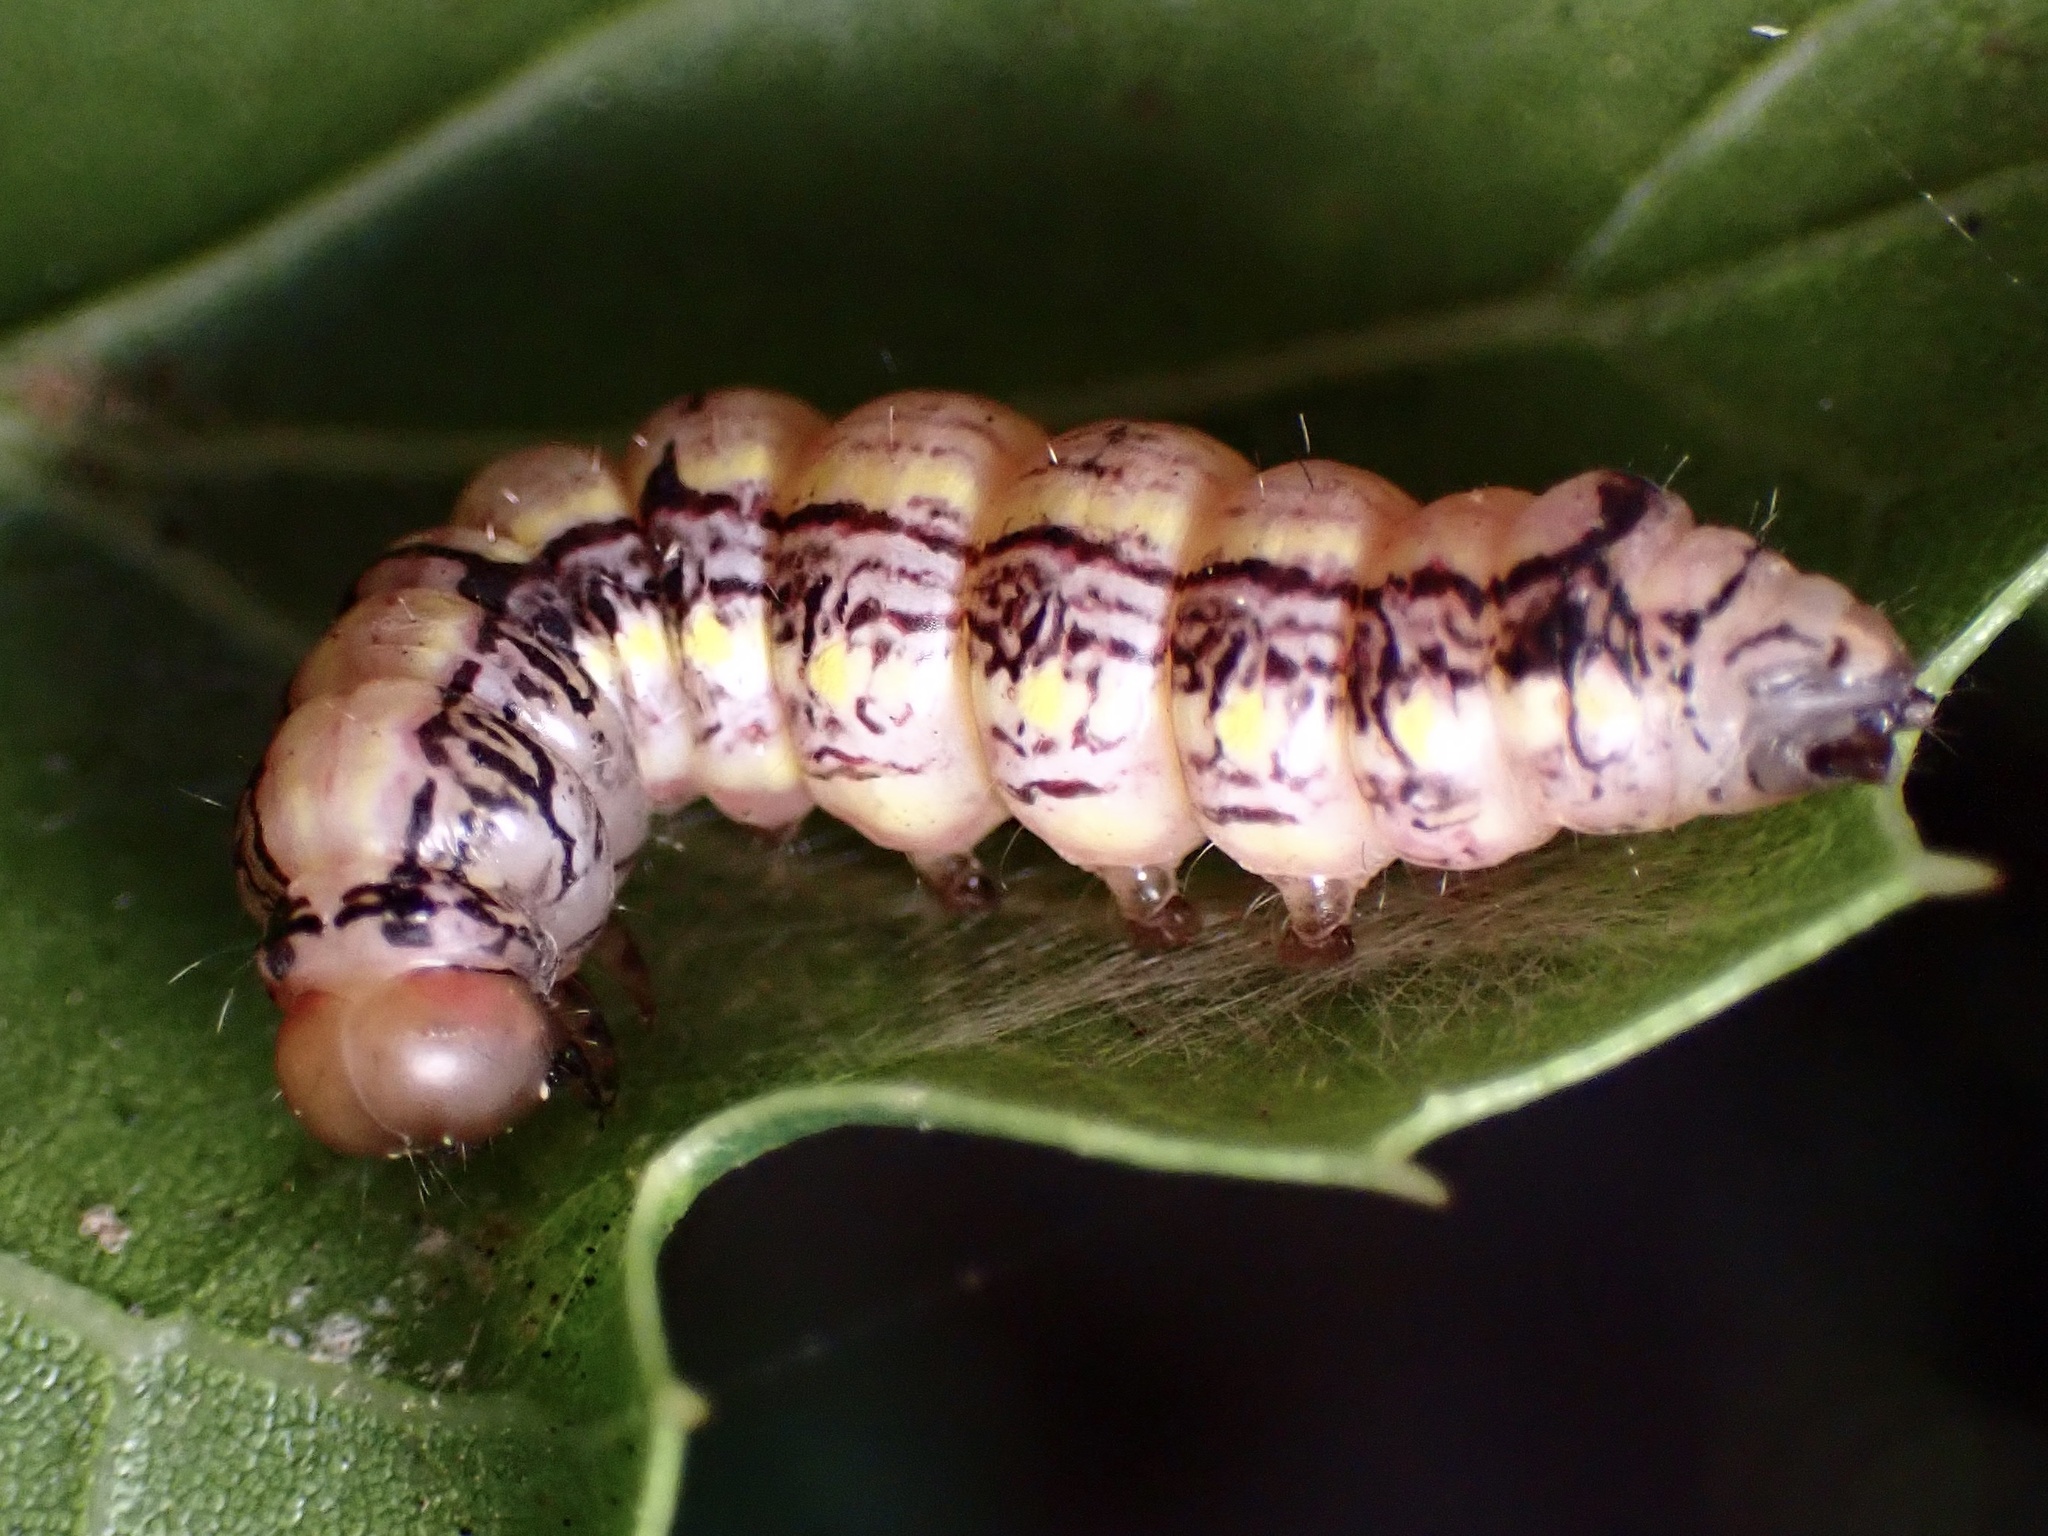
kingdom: Animalia
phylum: Arthropoda
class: Insecta
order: Lepidoptera
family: Notodontidae
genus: Phryganidia
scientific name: Phryganidia californica
